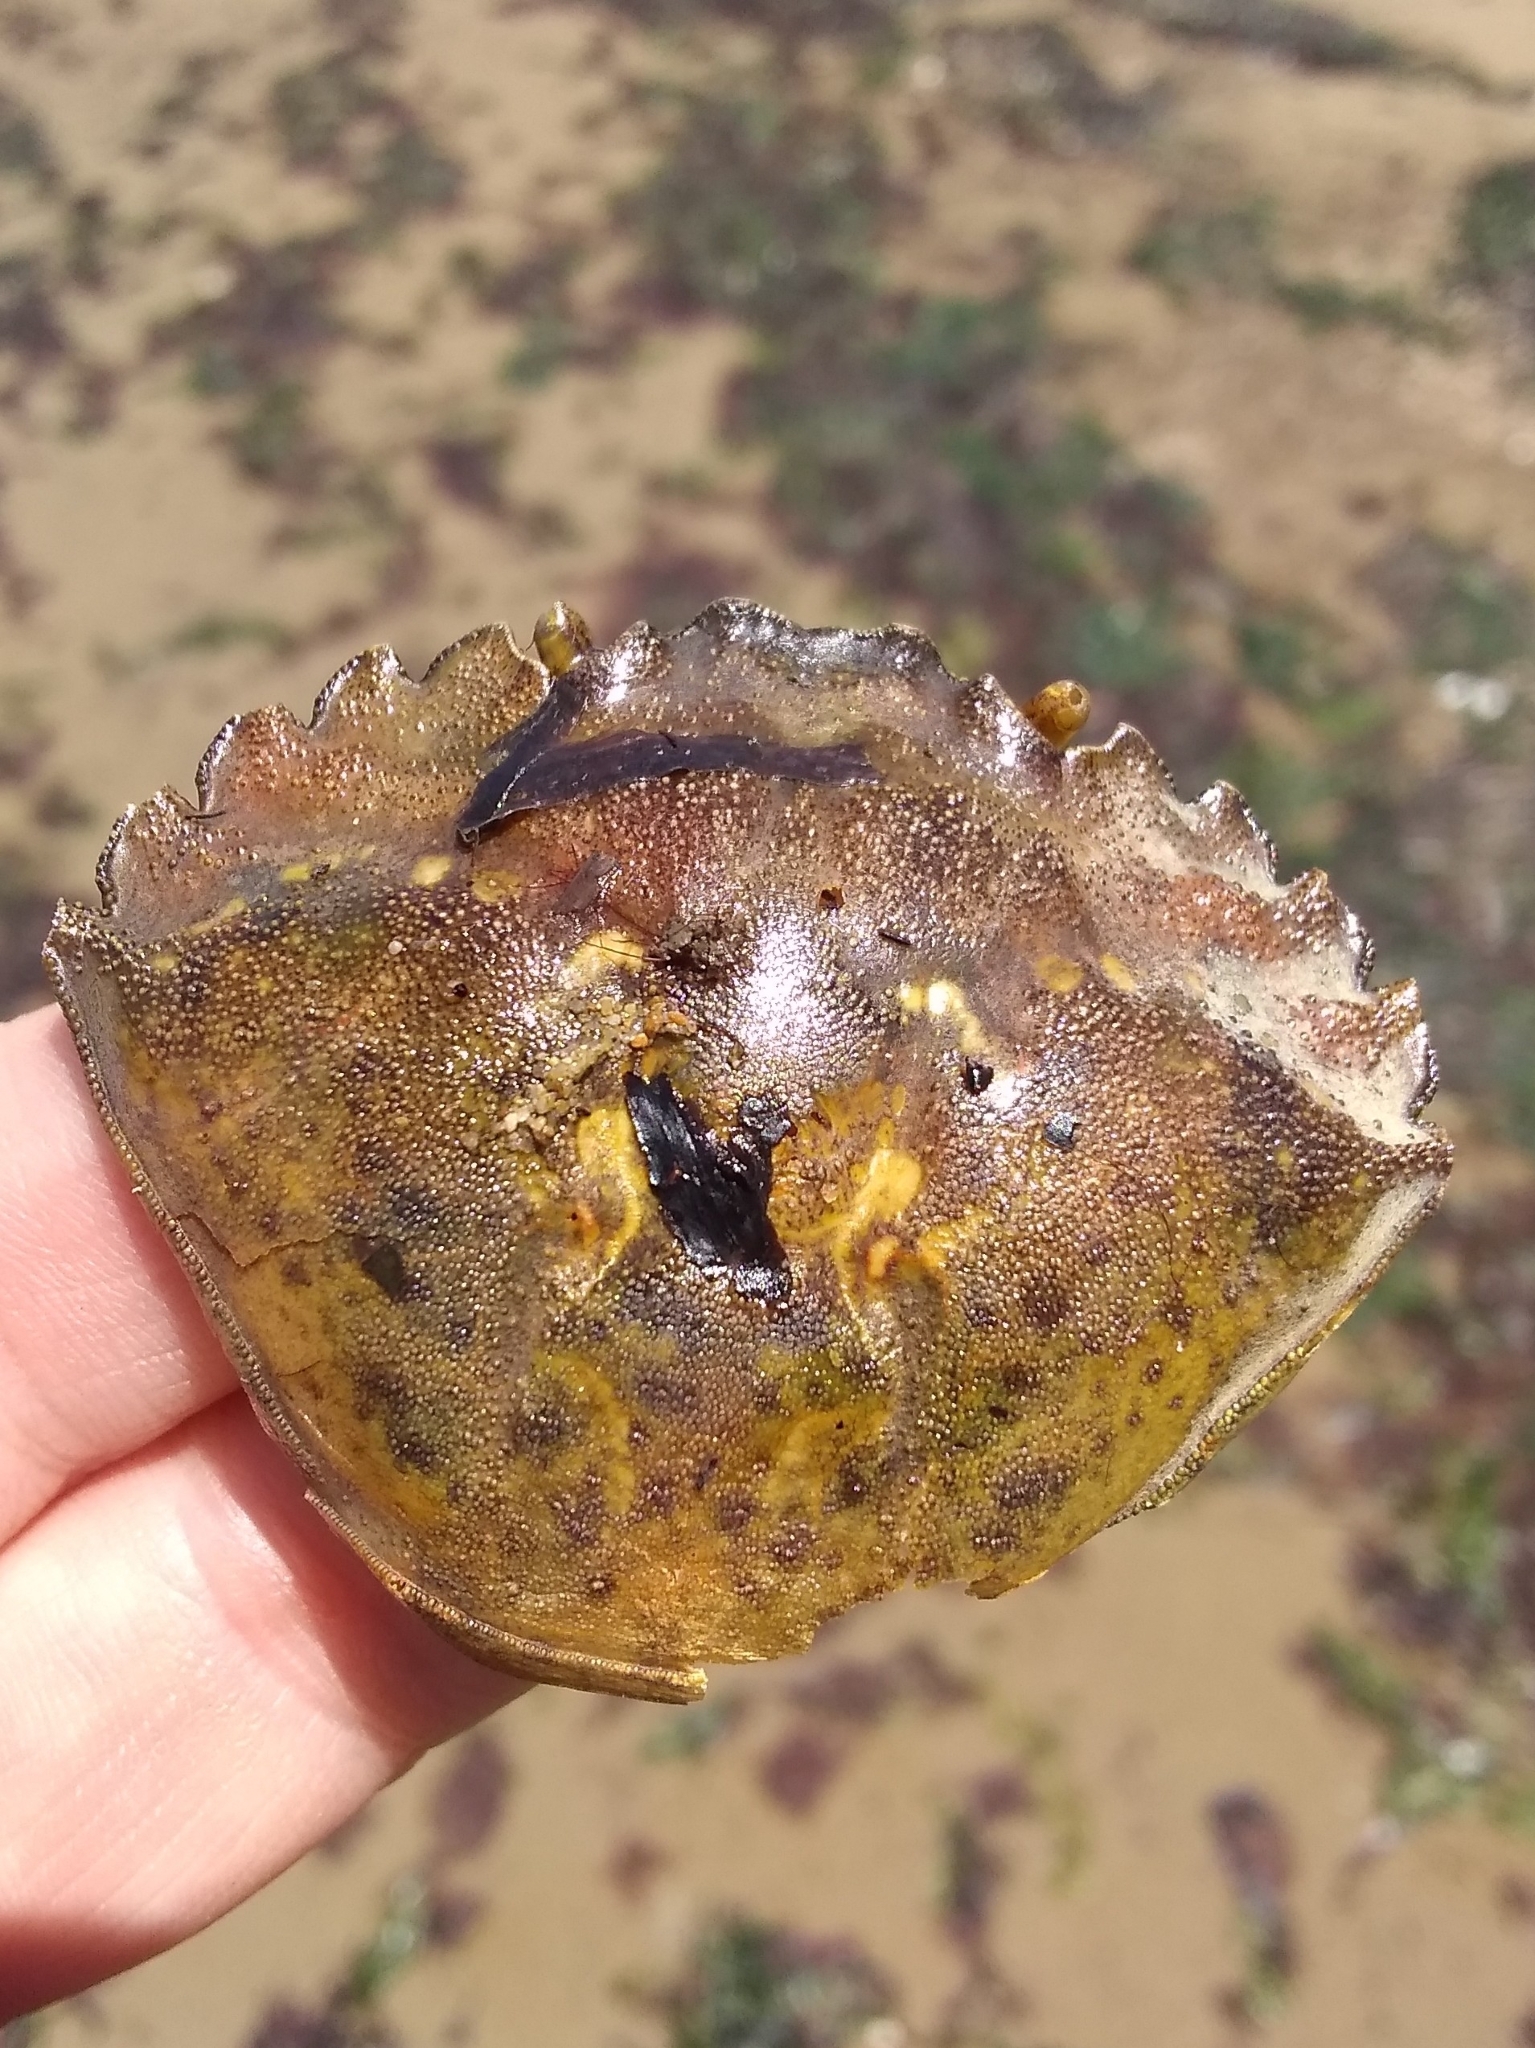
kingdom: Animalia
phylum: Arthropoda
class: Malacostraca
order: Decapoda
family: Carcinidae
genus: Carcinus
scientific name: Carcinus maenas
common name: European green crab
